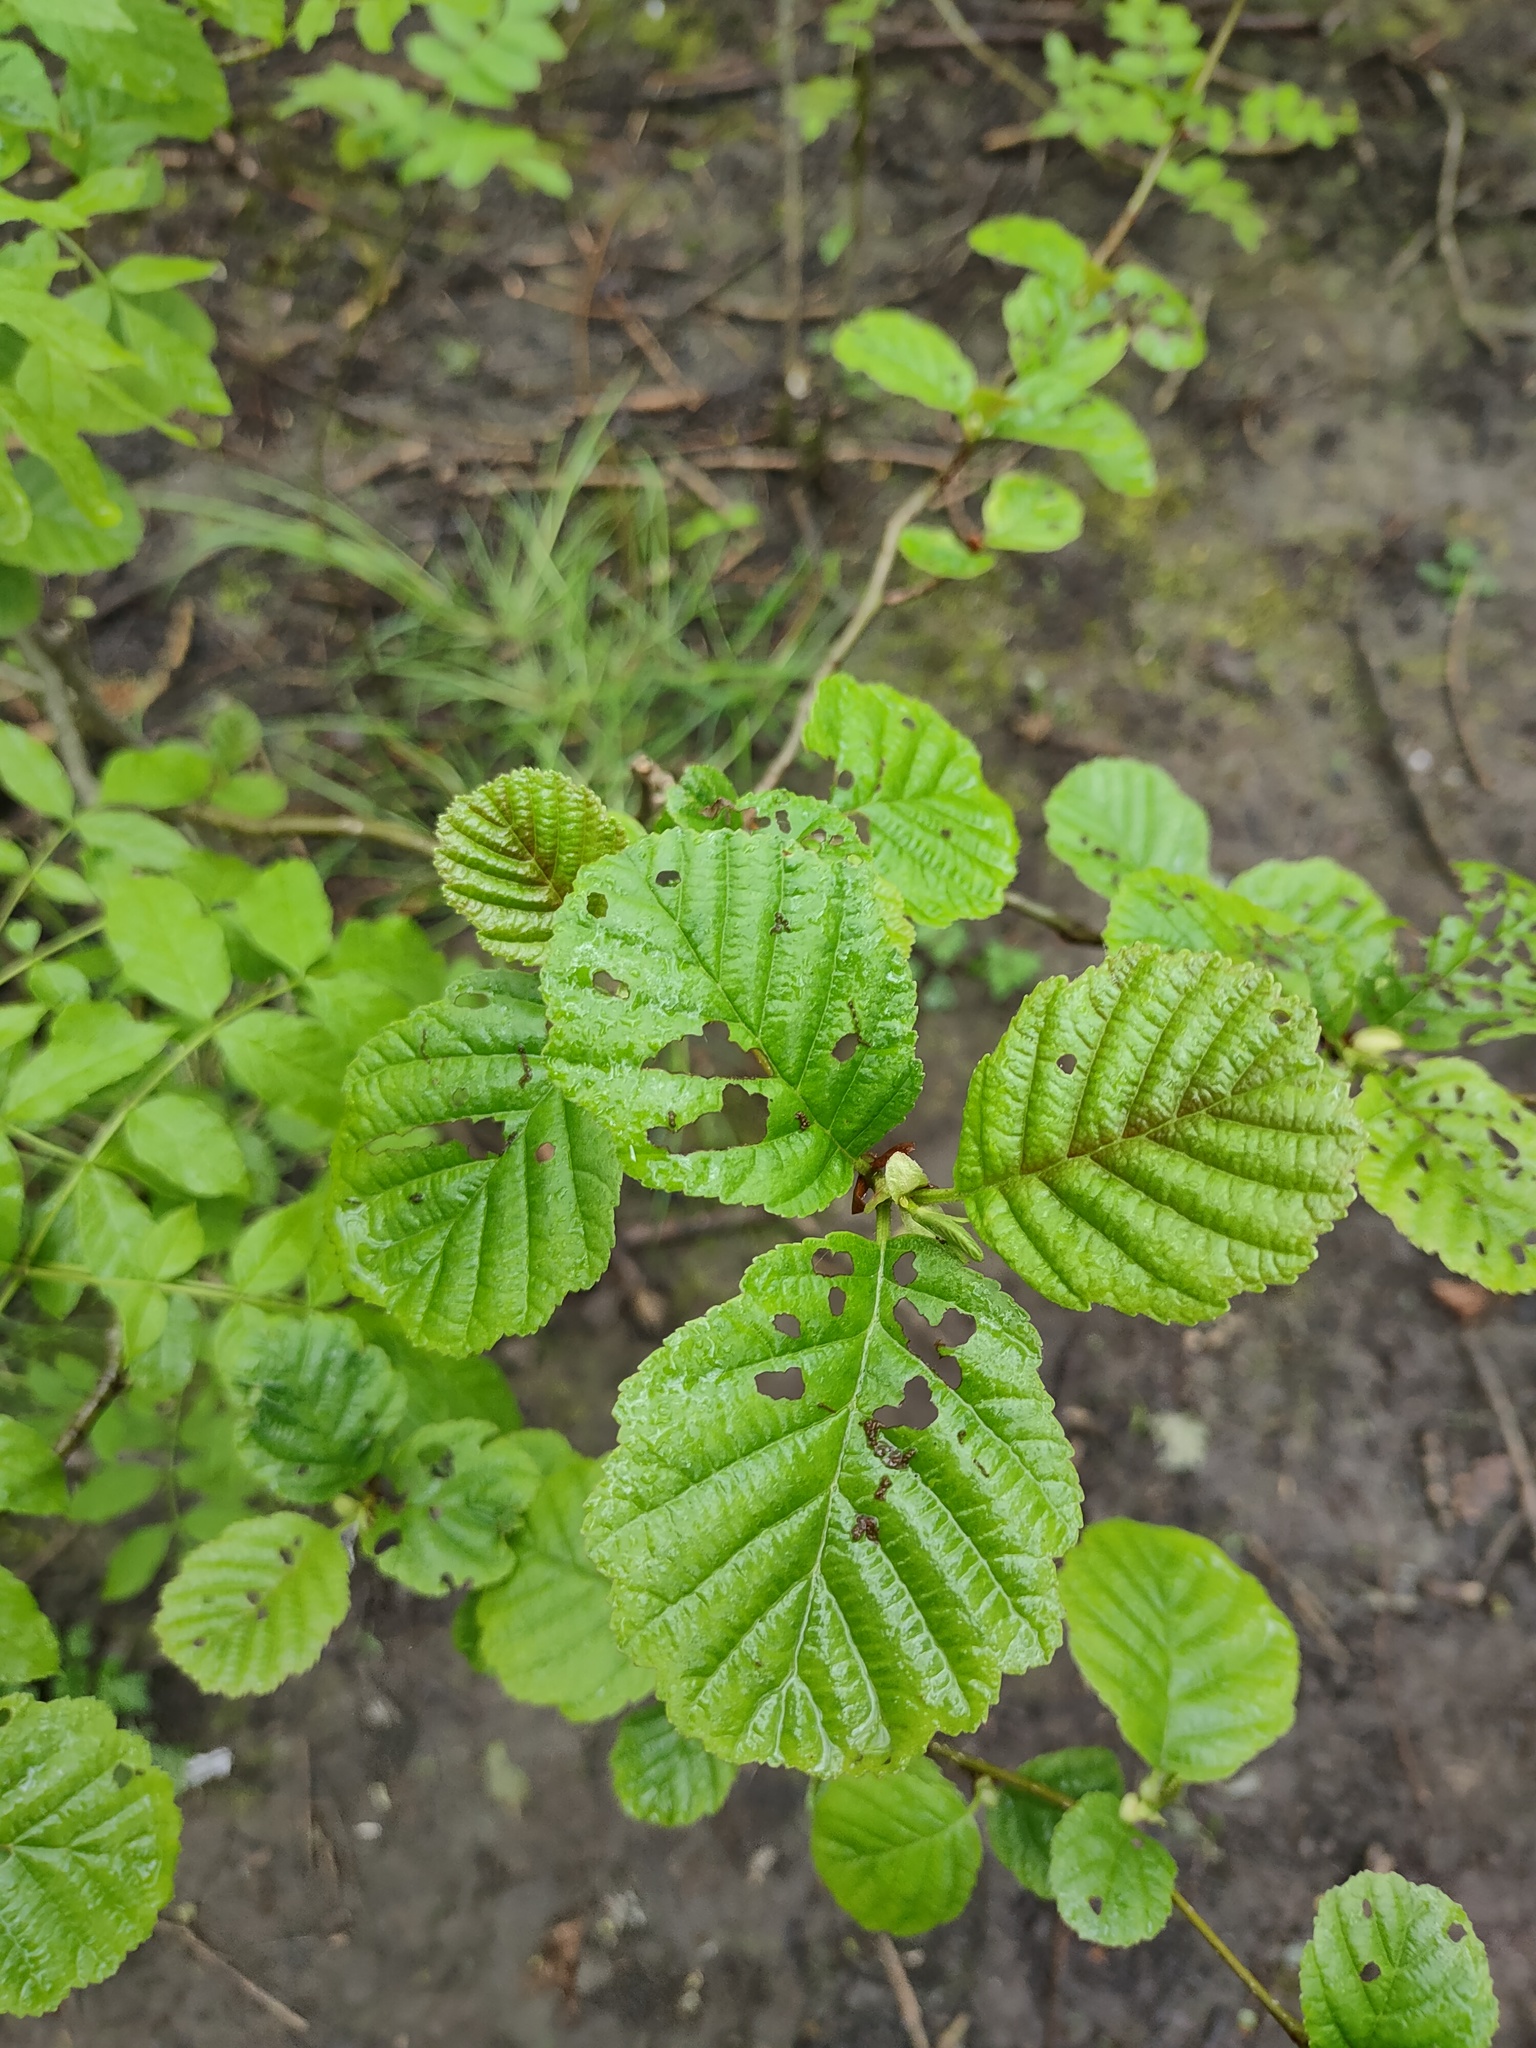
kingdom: Plantae
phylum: Tracheophyta
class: Magnoliopsida
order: Fagales
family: Betulaceae
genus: Alnus
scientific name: Alnus glutinosa
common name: Black alder
